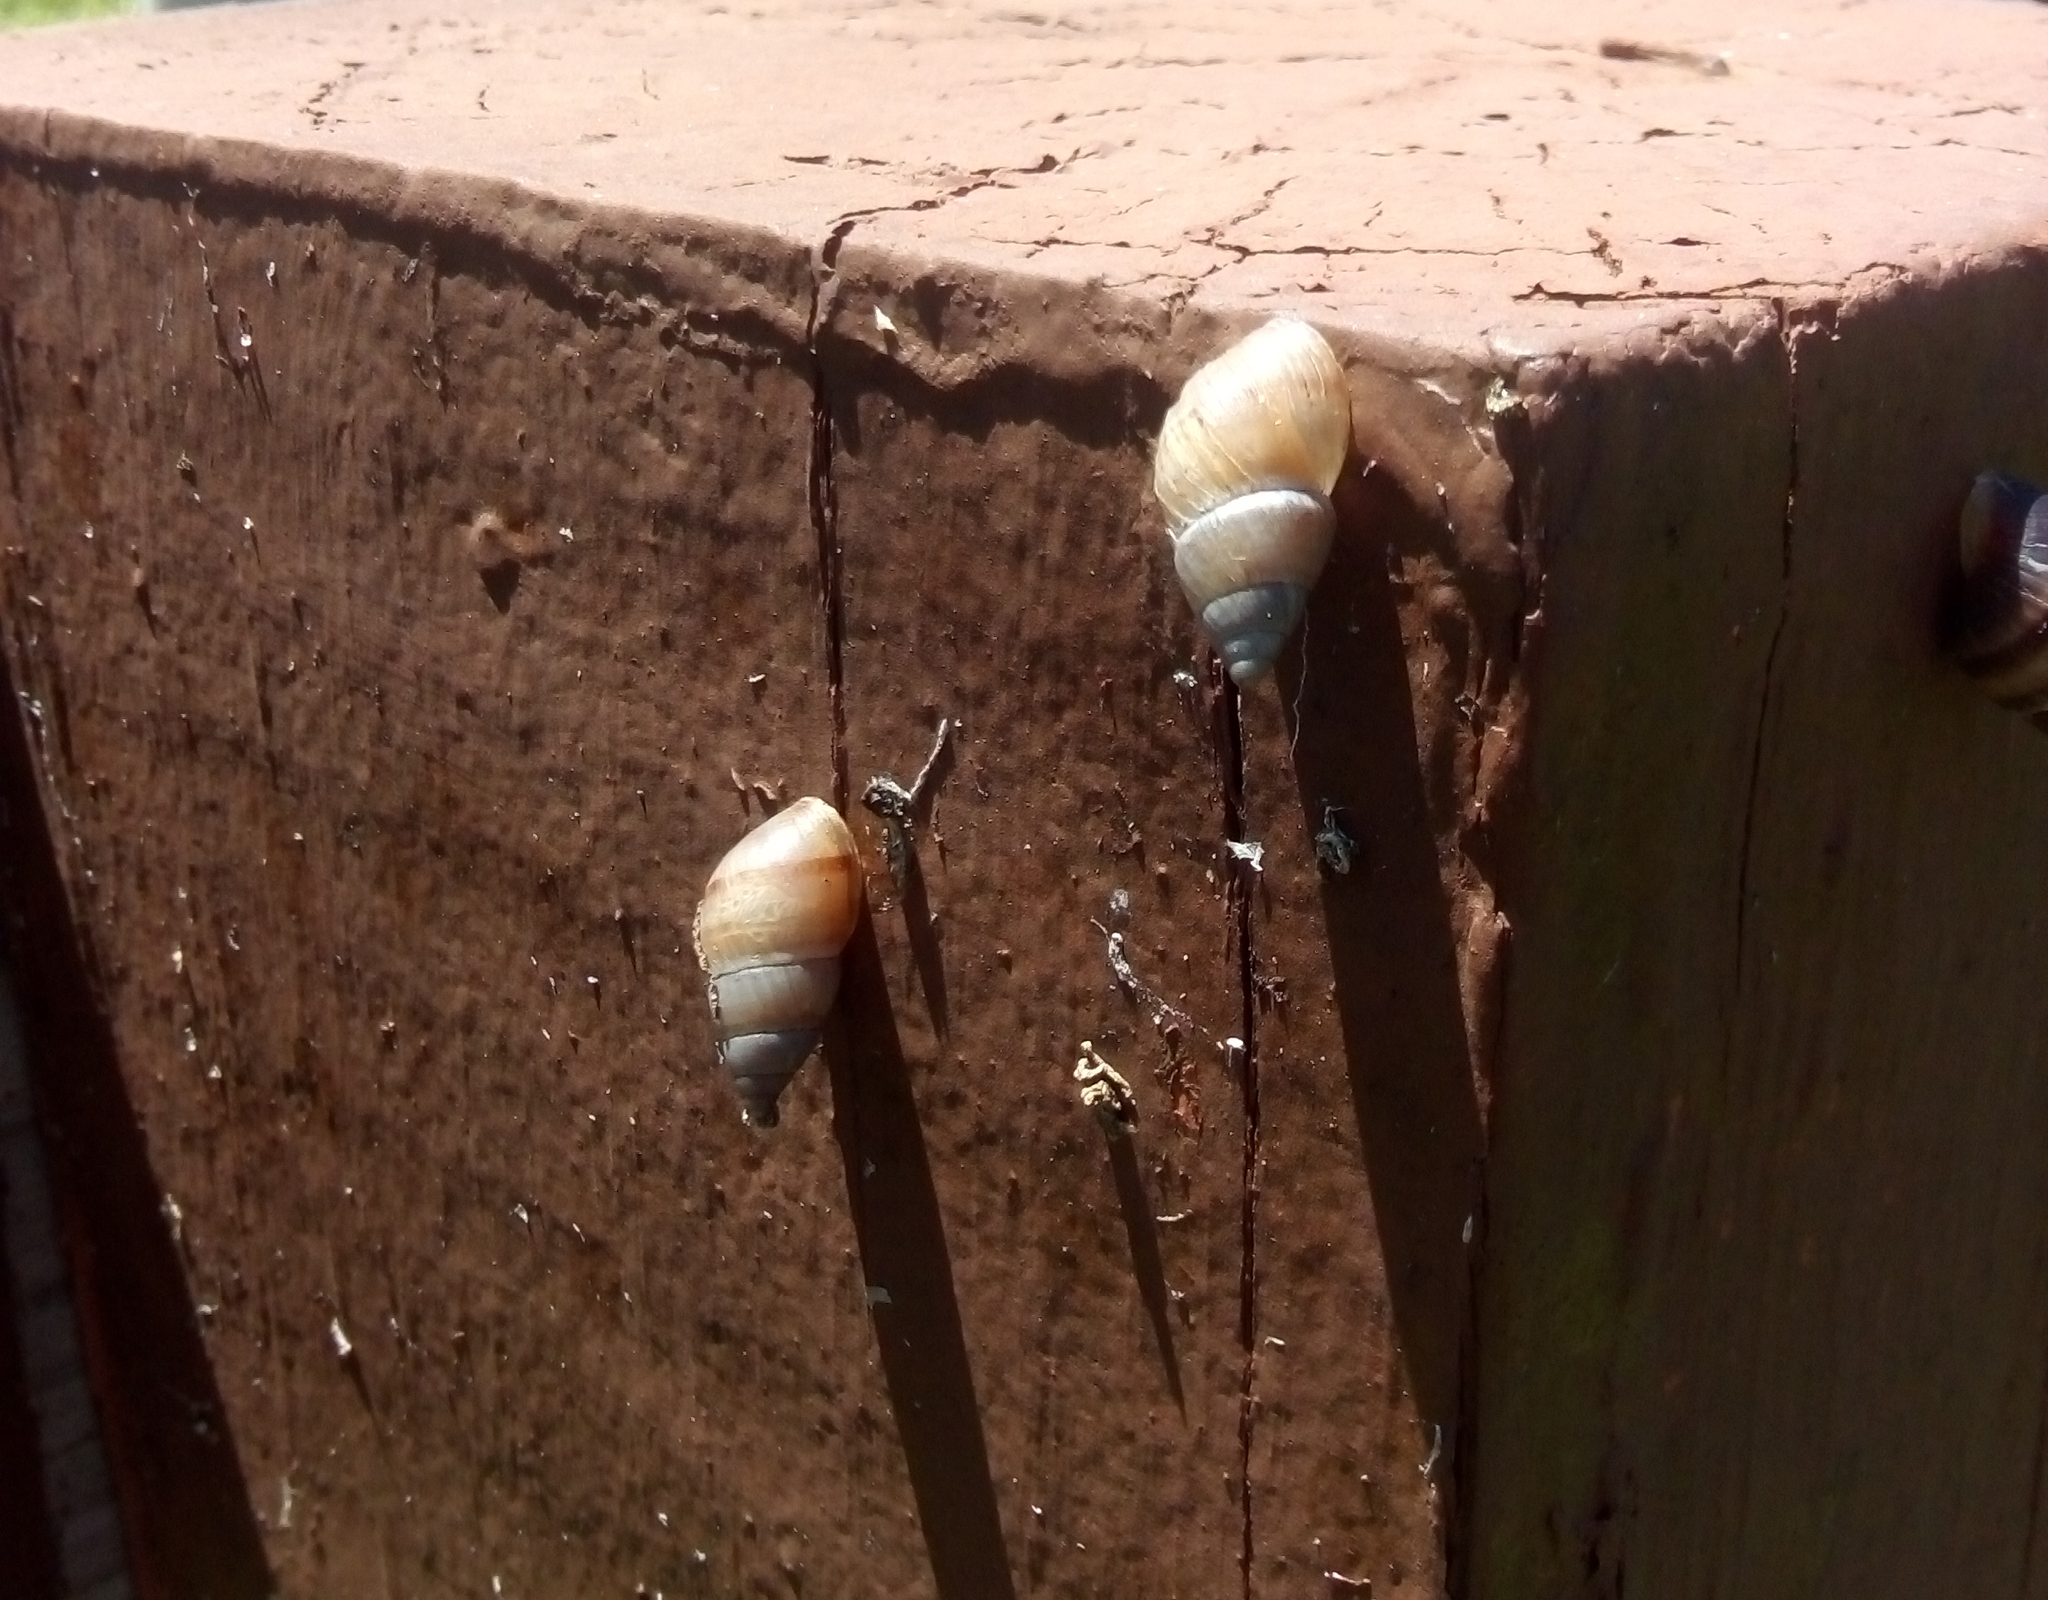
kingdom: Animalia
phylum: Mollusca
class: Gastropoda
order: Stylommatophora
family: Bulimulidae
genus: Bulimulus
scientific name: Bulimulus guadalupensis
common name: West indian bulimulus
